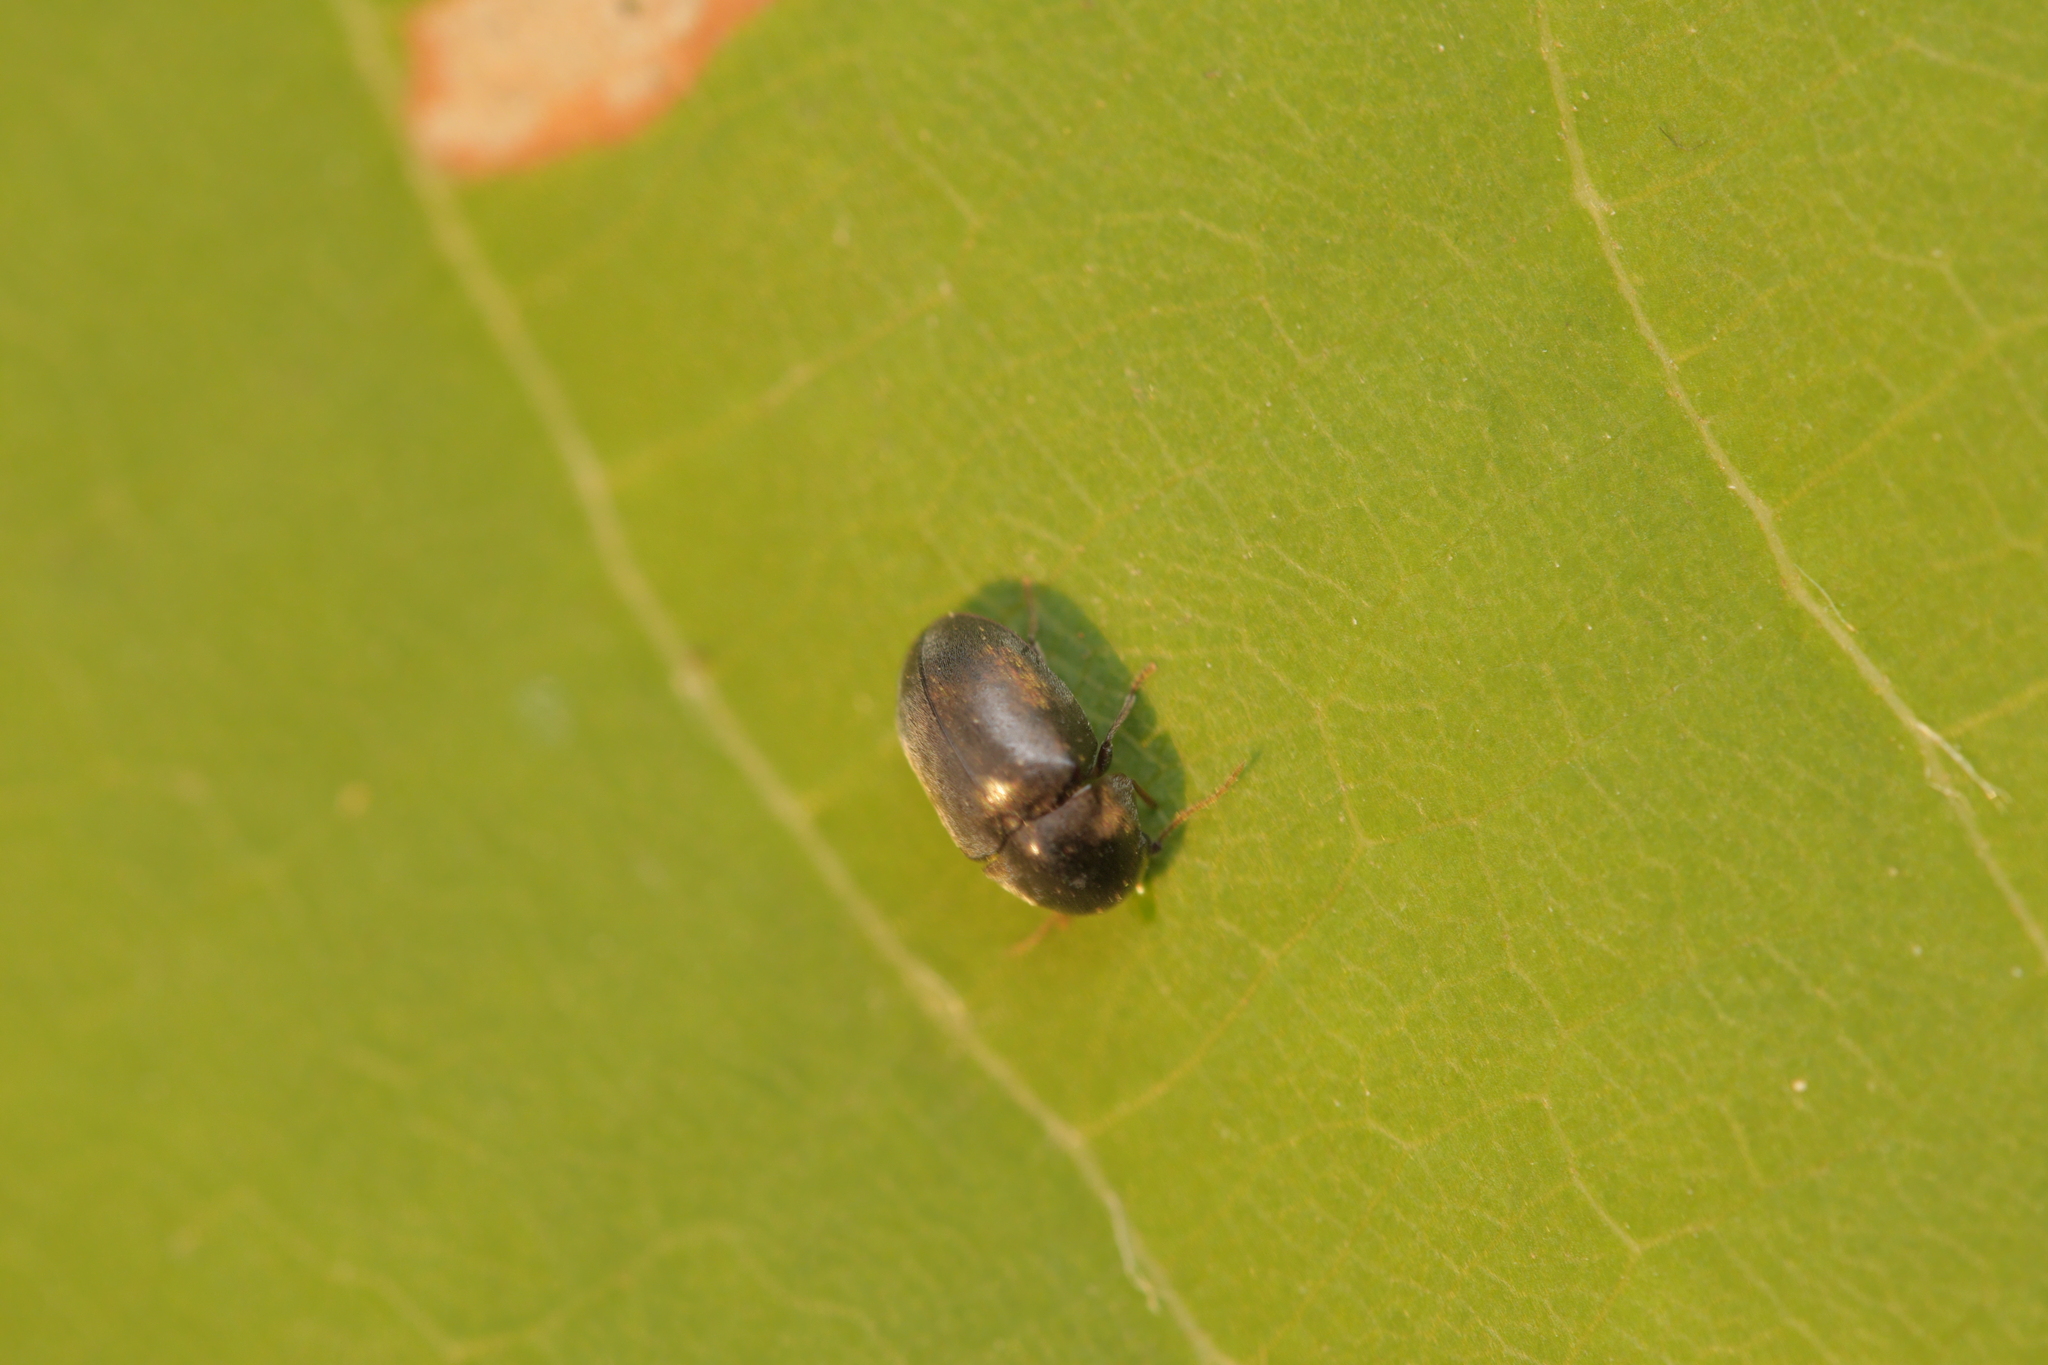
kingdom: Animalia
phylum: Arthropoda
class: Insecta
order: Coleoptera
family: Anobiidae
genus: Mesocoelopus
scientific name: Mesocoelopus niger
